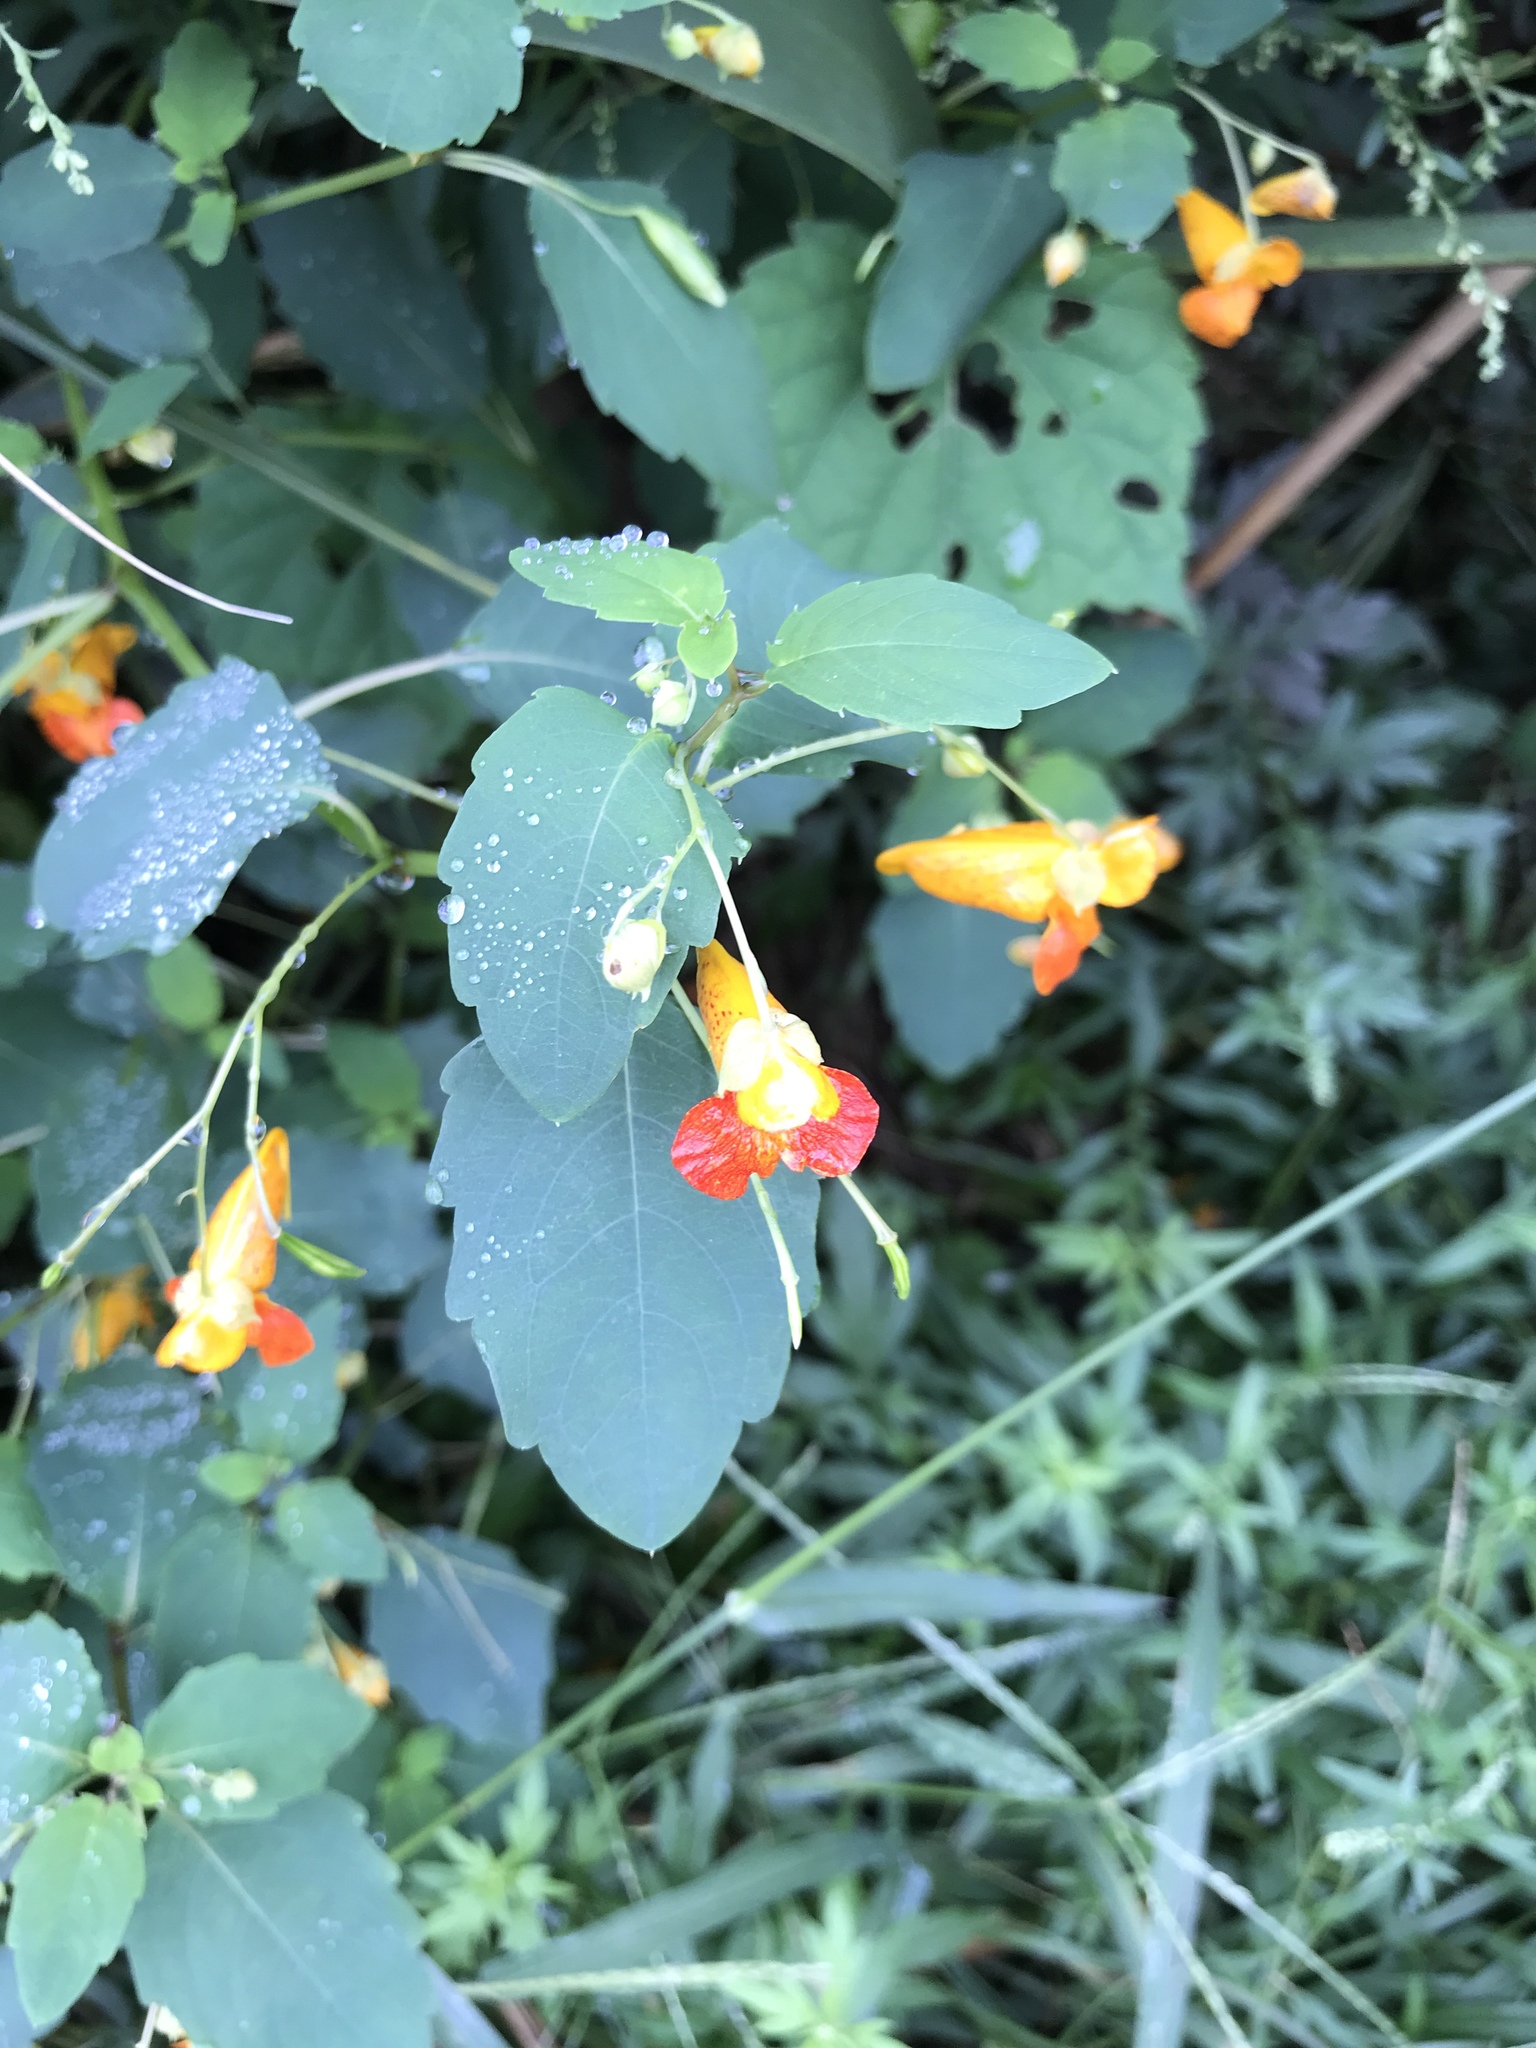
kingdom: Plantae
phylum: Tracheophyta
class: Magnoliopsida
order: Ericales
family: Balsaminaceae
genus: Impatiens
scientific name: Impatiens capensis
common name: Orange balsam
